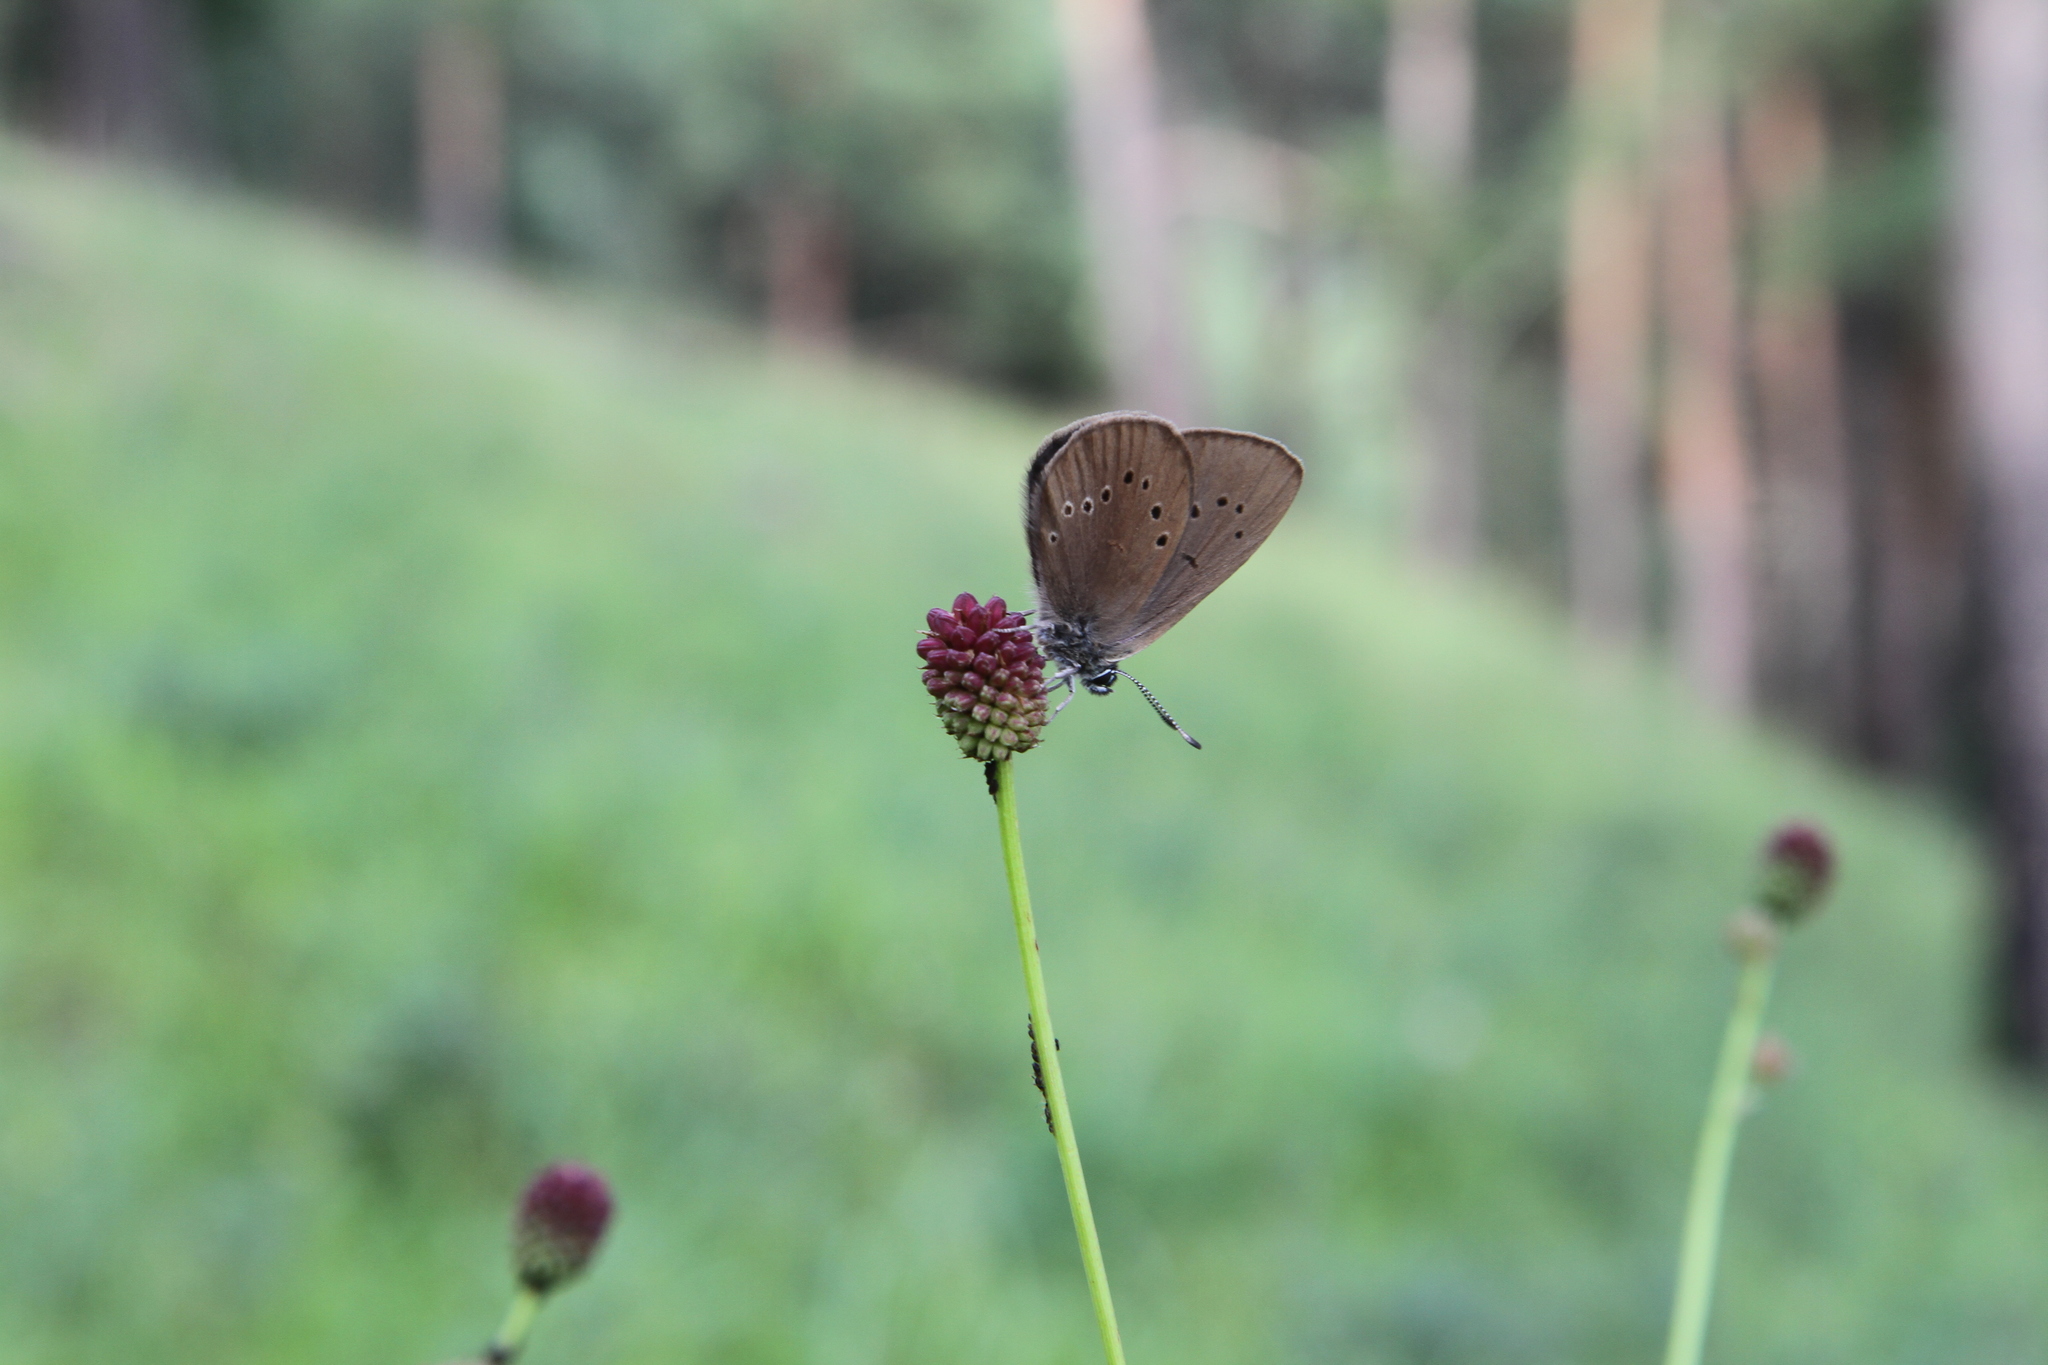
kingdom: Animalia
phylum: Arthropoda
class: Insecta
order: Lepidoptera
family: Lycaenidae
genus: Maculinea
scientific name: Maculinea nausithous
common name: Dusky large blue
